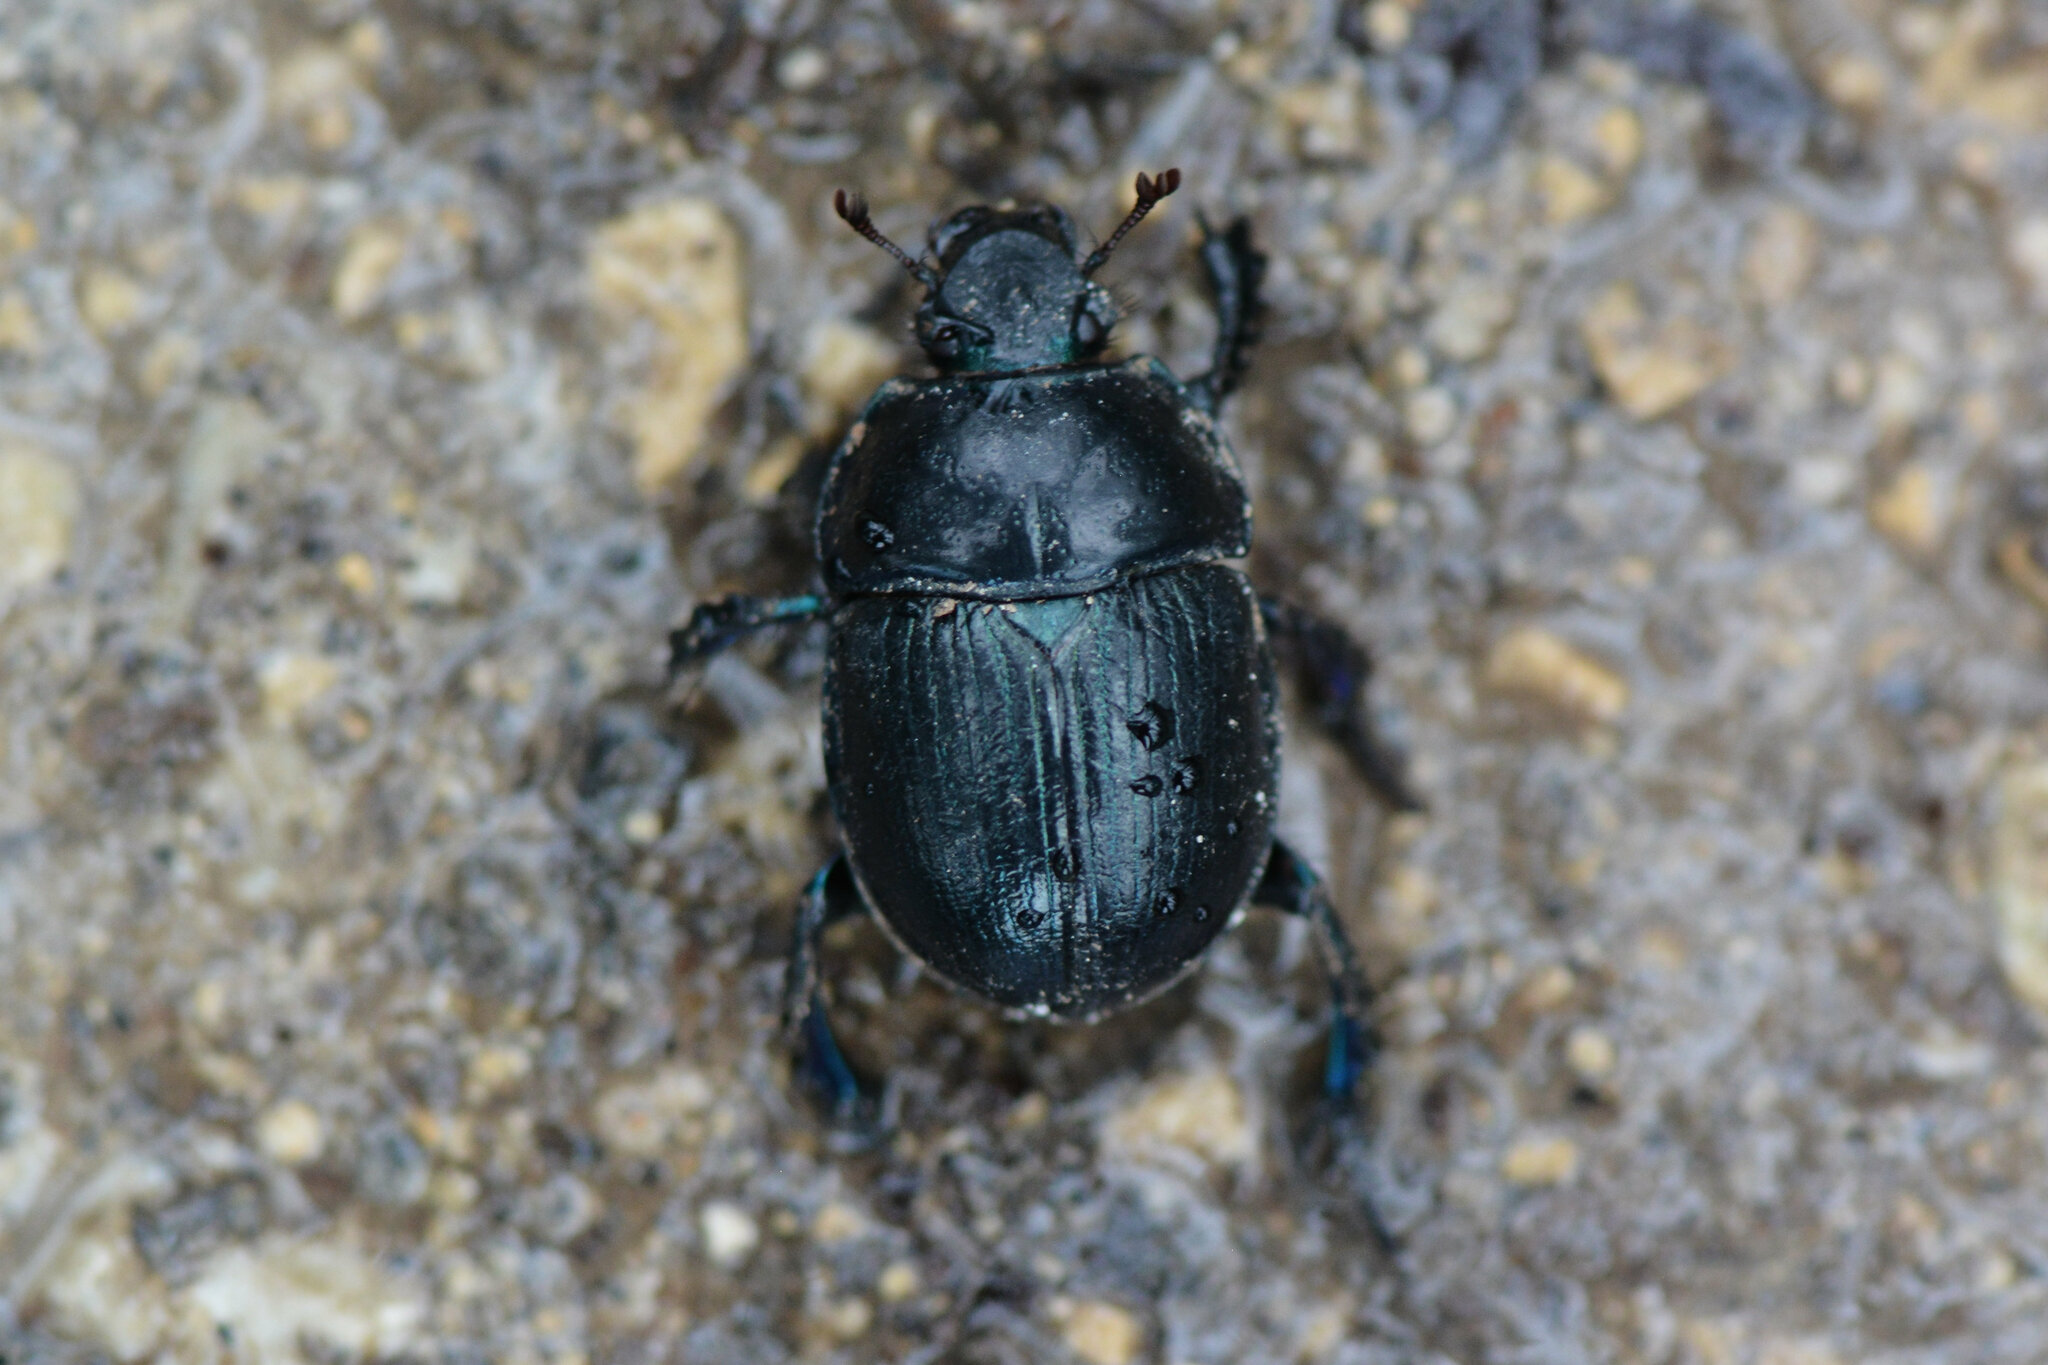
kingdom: Animalia
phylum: Arthropoda
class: Insecta
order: Coleoptera
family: Geotrupidae
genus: Anoplotrupes
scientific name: Anoplotrupes stercorosus
